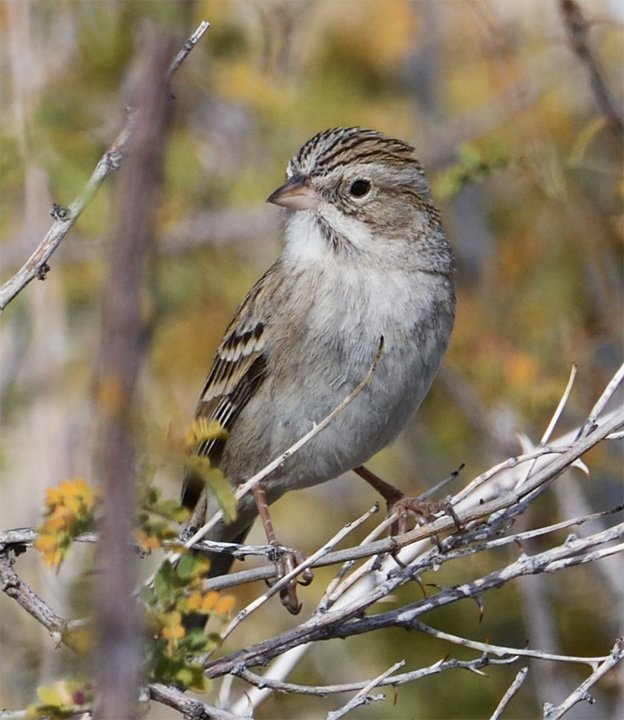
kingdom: Animalia
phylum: Chordata
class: Aves
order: Passeriformes
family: Passerellidae
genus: Spizella
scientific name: Spizella breweri
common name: Brewer's sparrow
